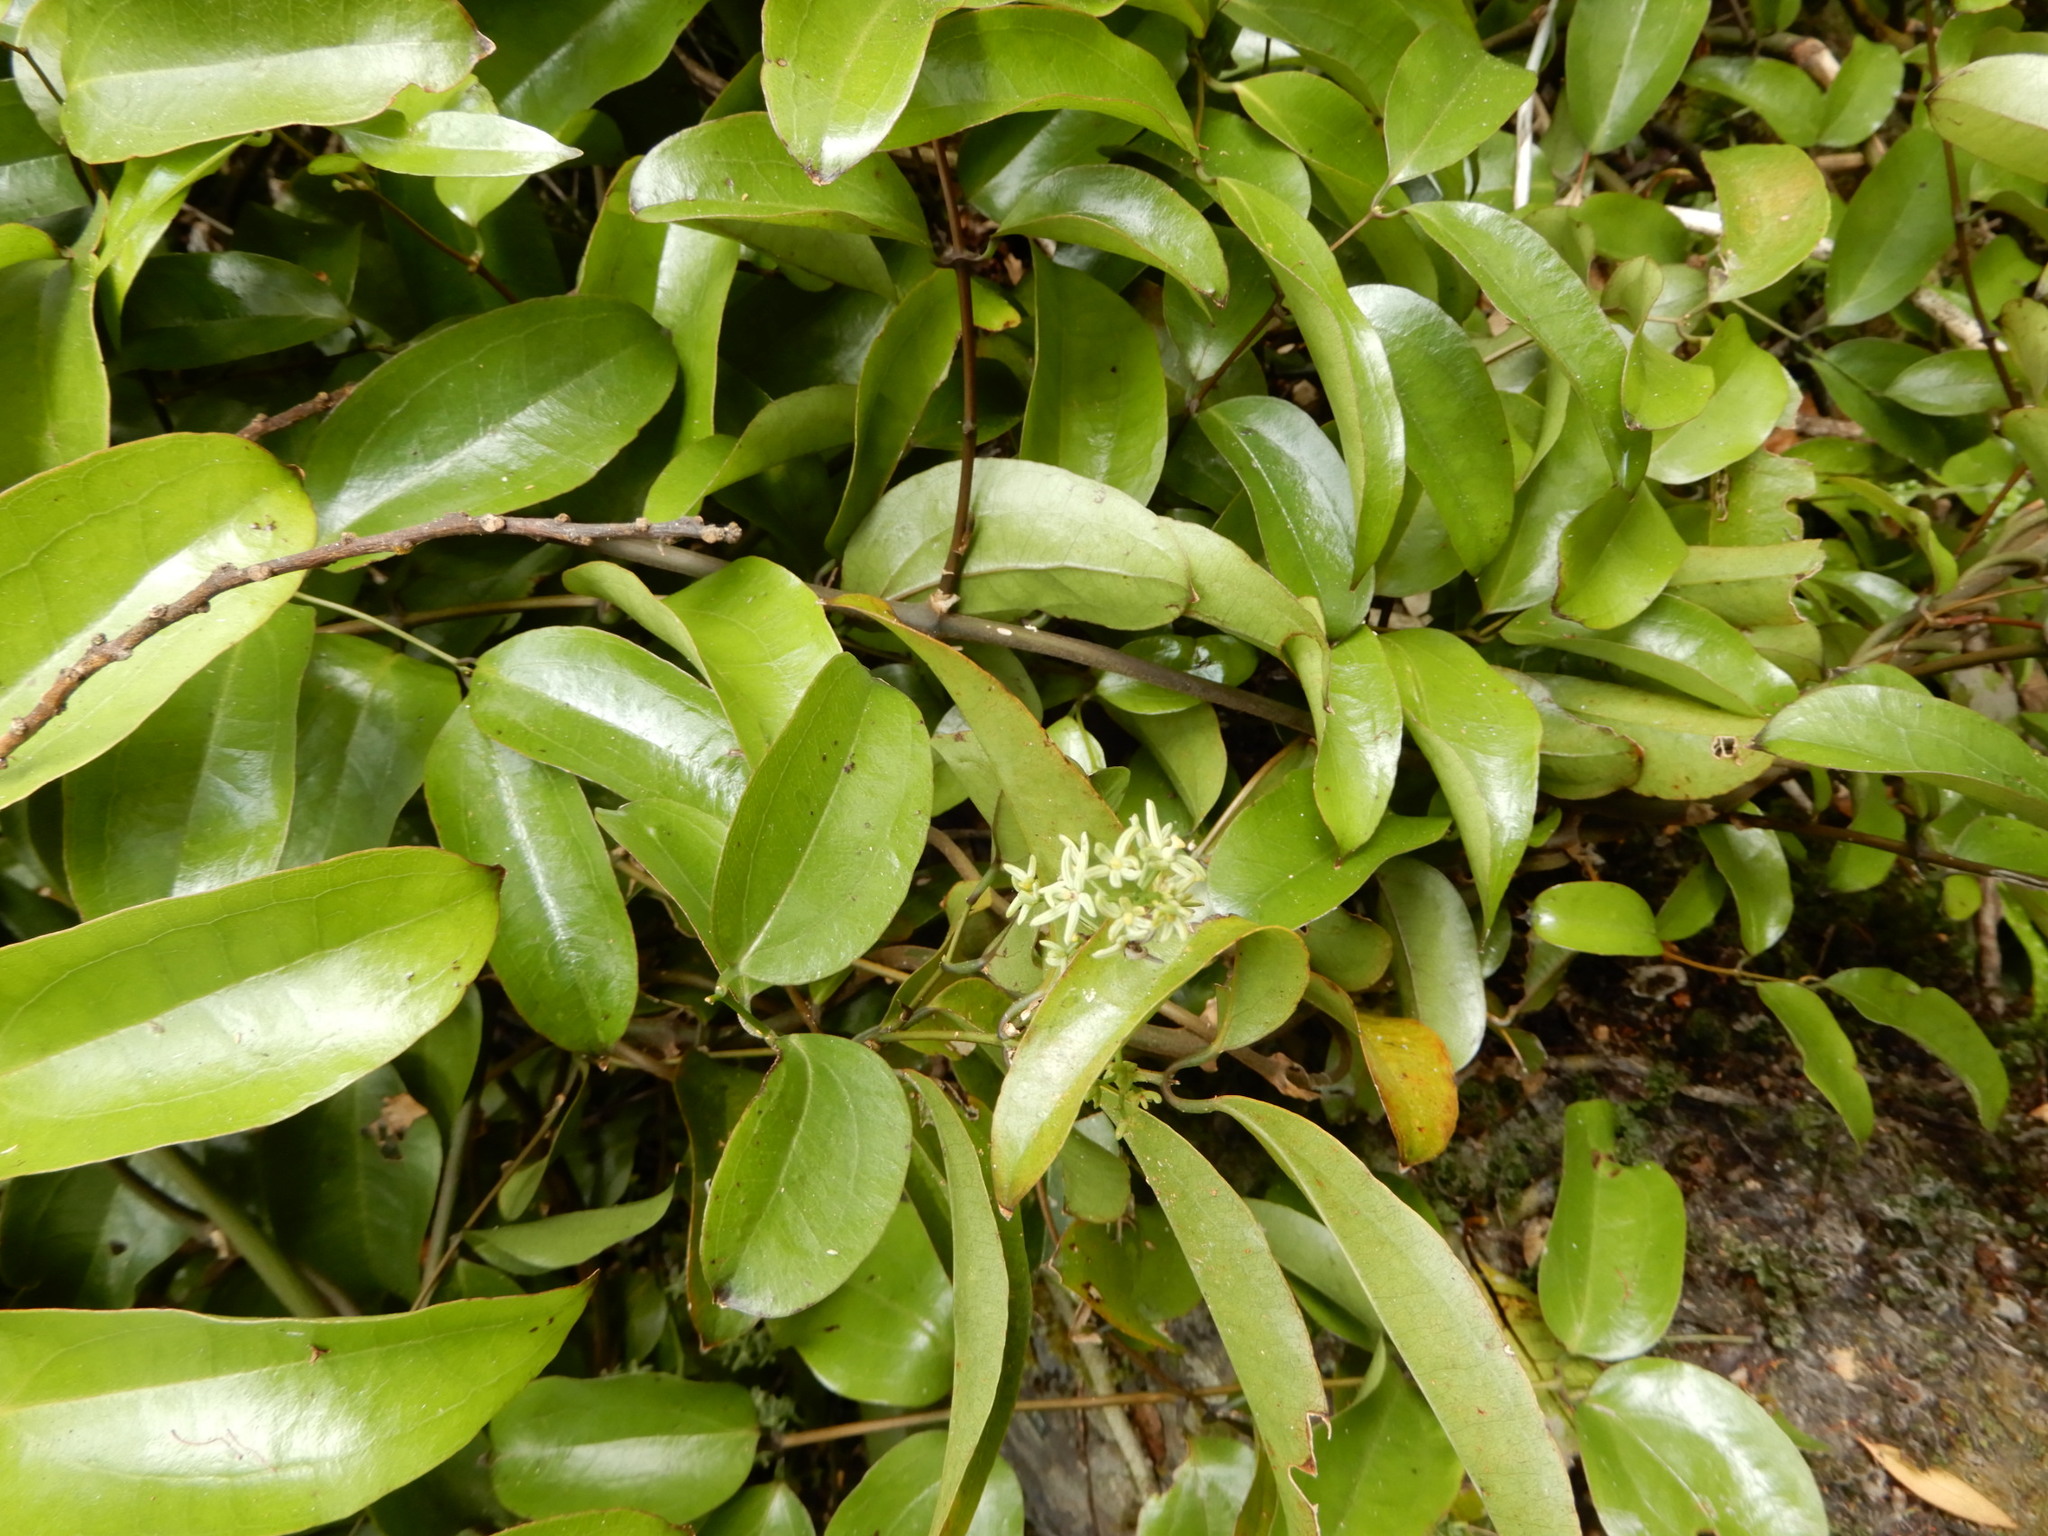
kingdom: Plantae
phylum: Tracheophyta
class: Liliopsida
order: Liliales
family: Ripogonaceae
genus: Ripogonum
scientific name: Ripogonum scandens
